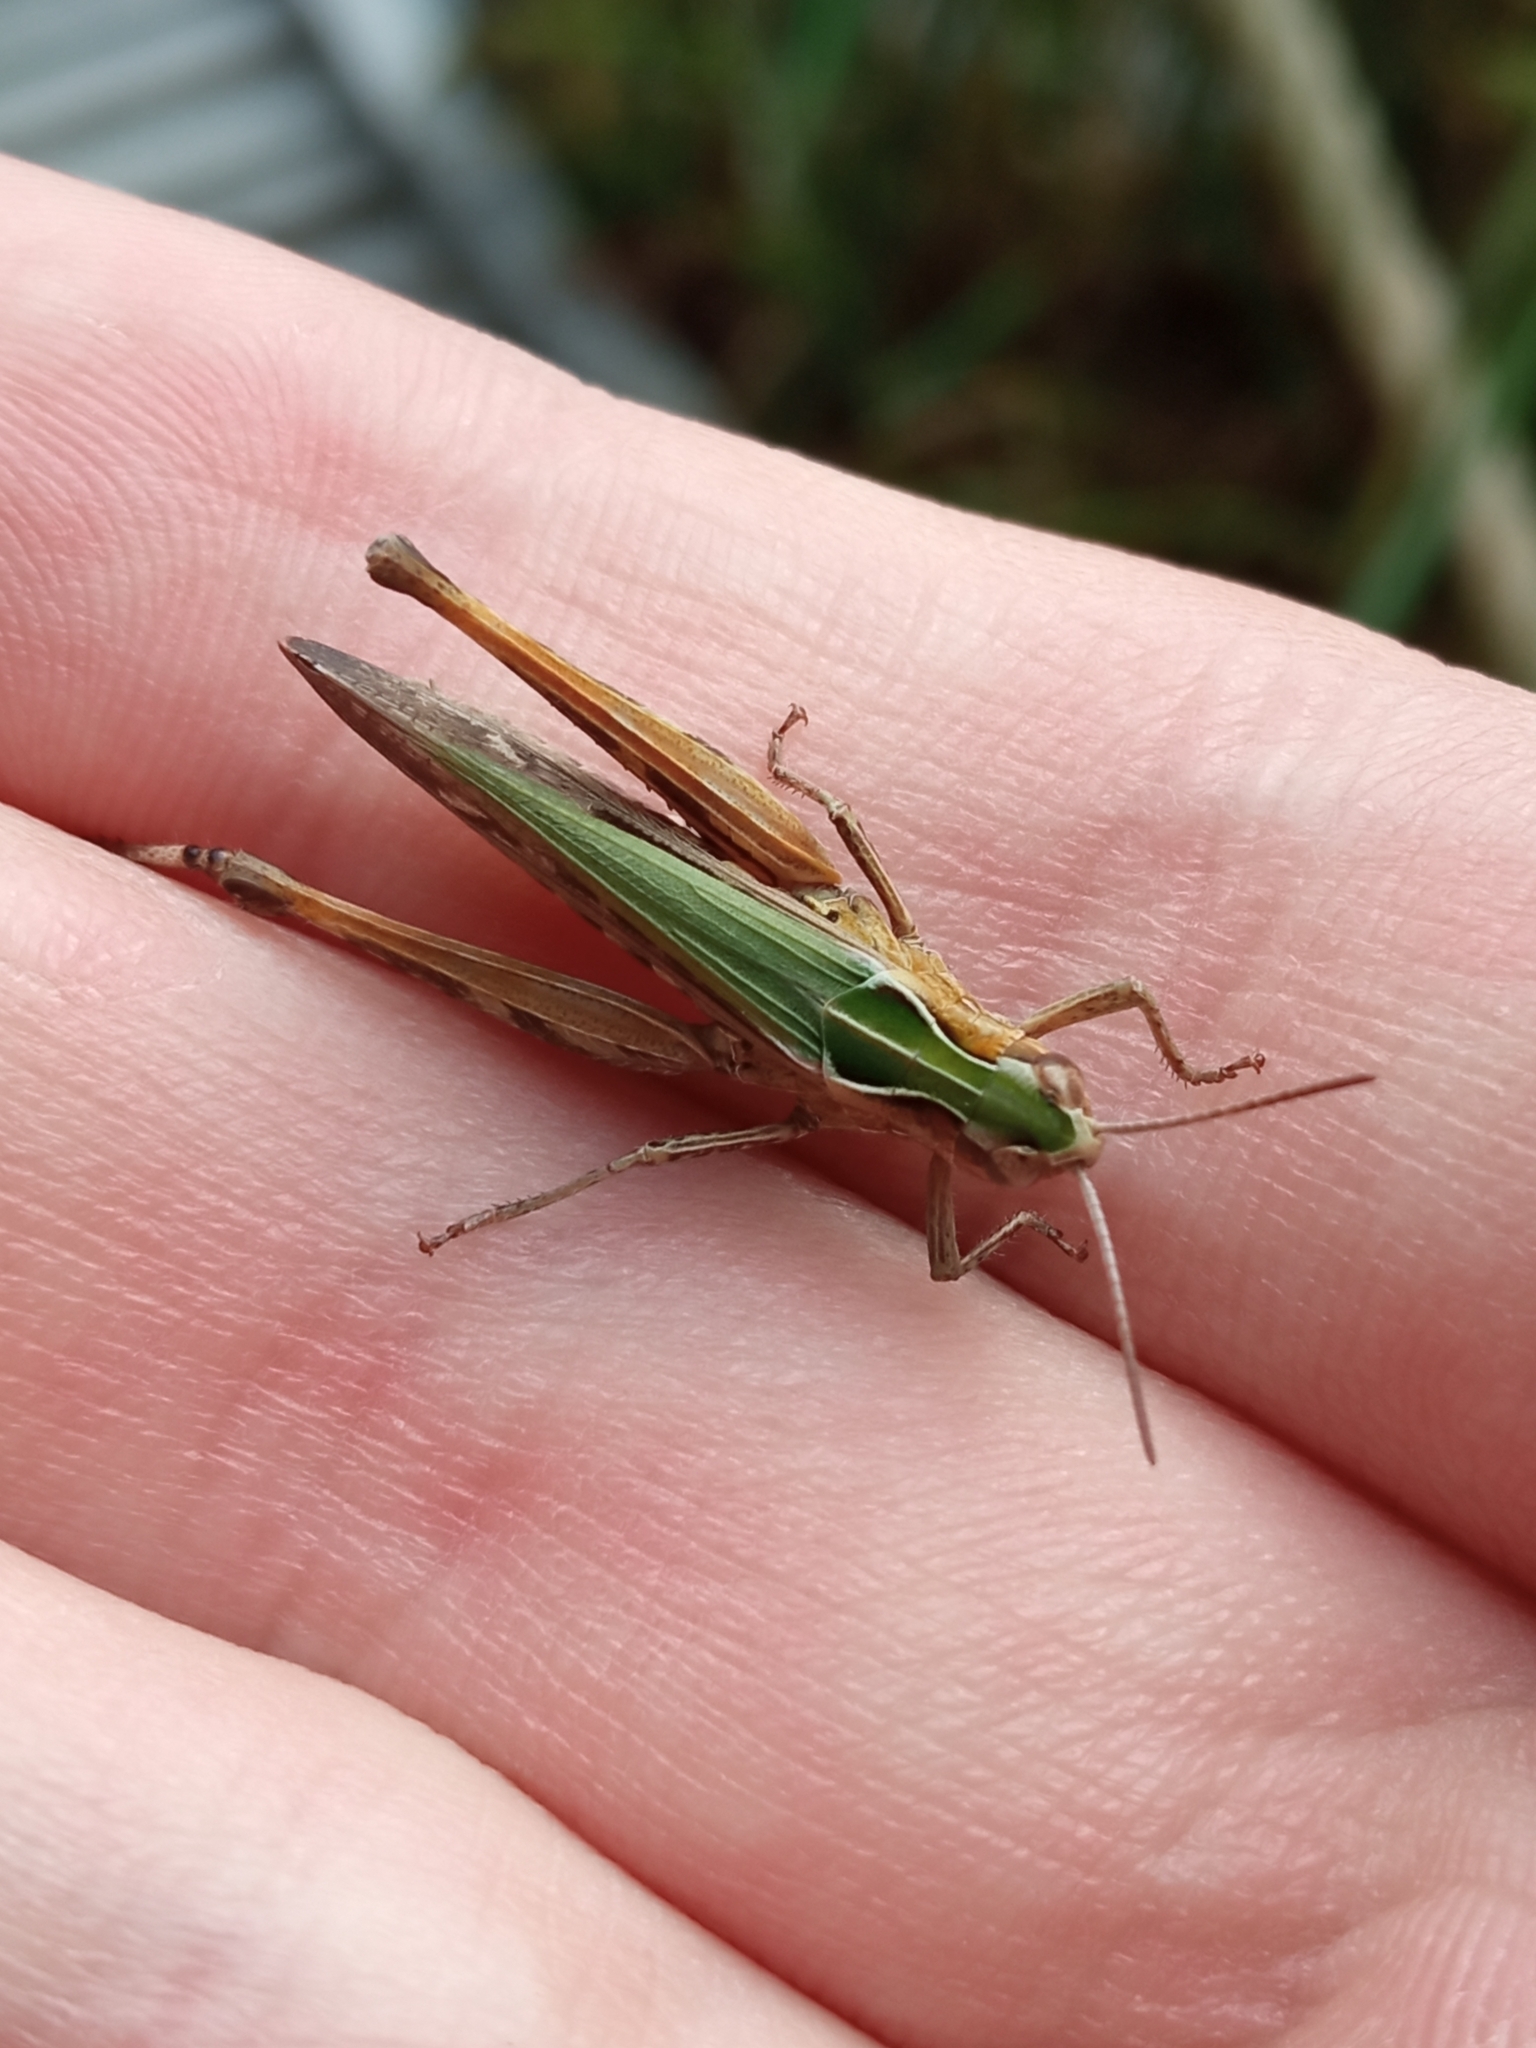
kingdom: Animalia
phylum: Arthropoda
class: Insecta
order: Orthoptera
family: Acrididae
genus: Omocestus
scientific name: Omocestus rufipes
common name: Woodland grasshopper
